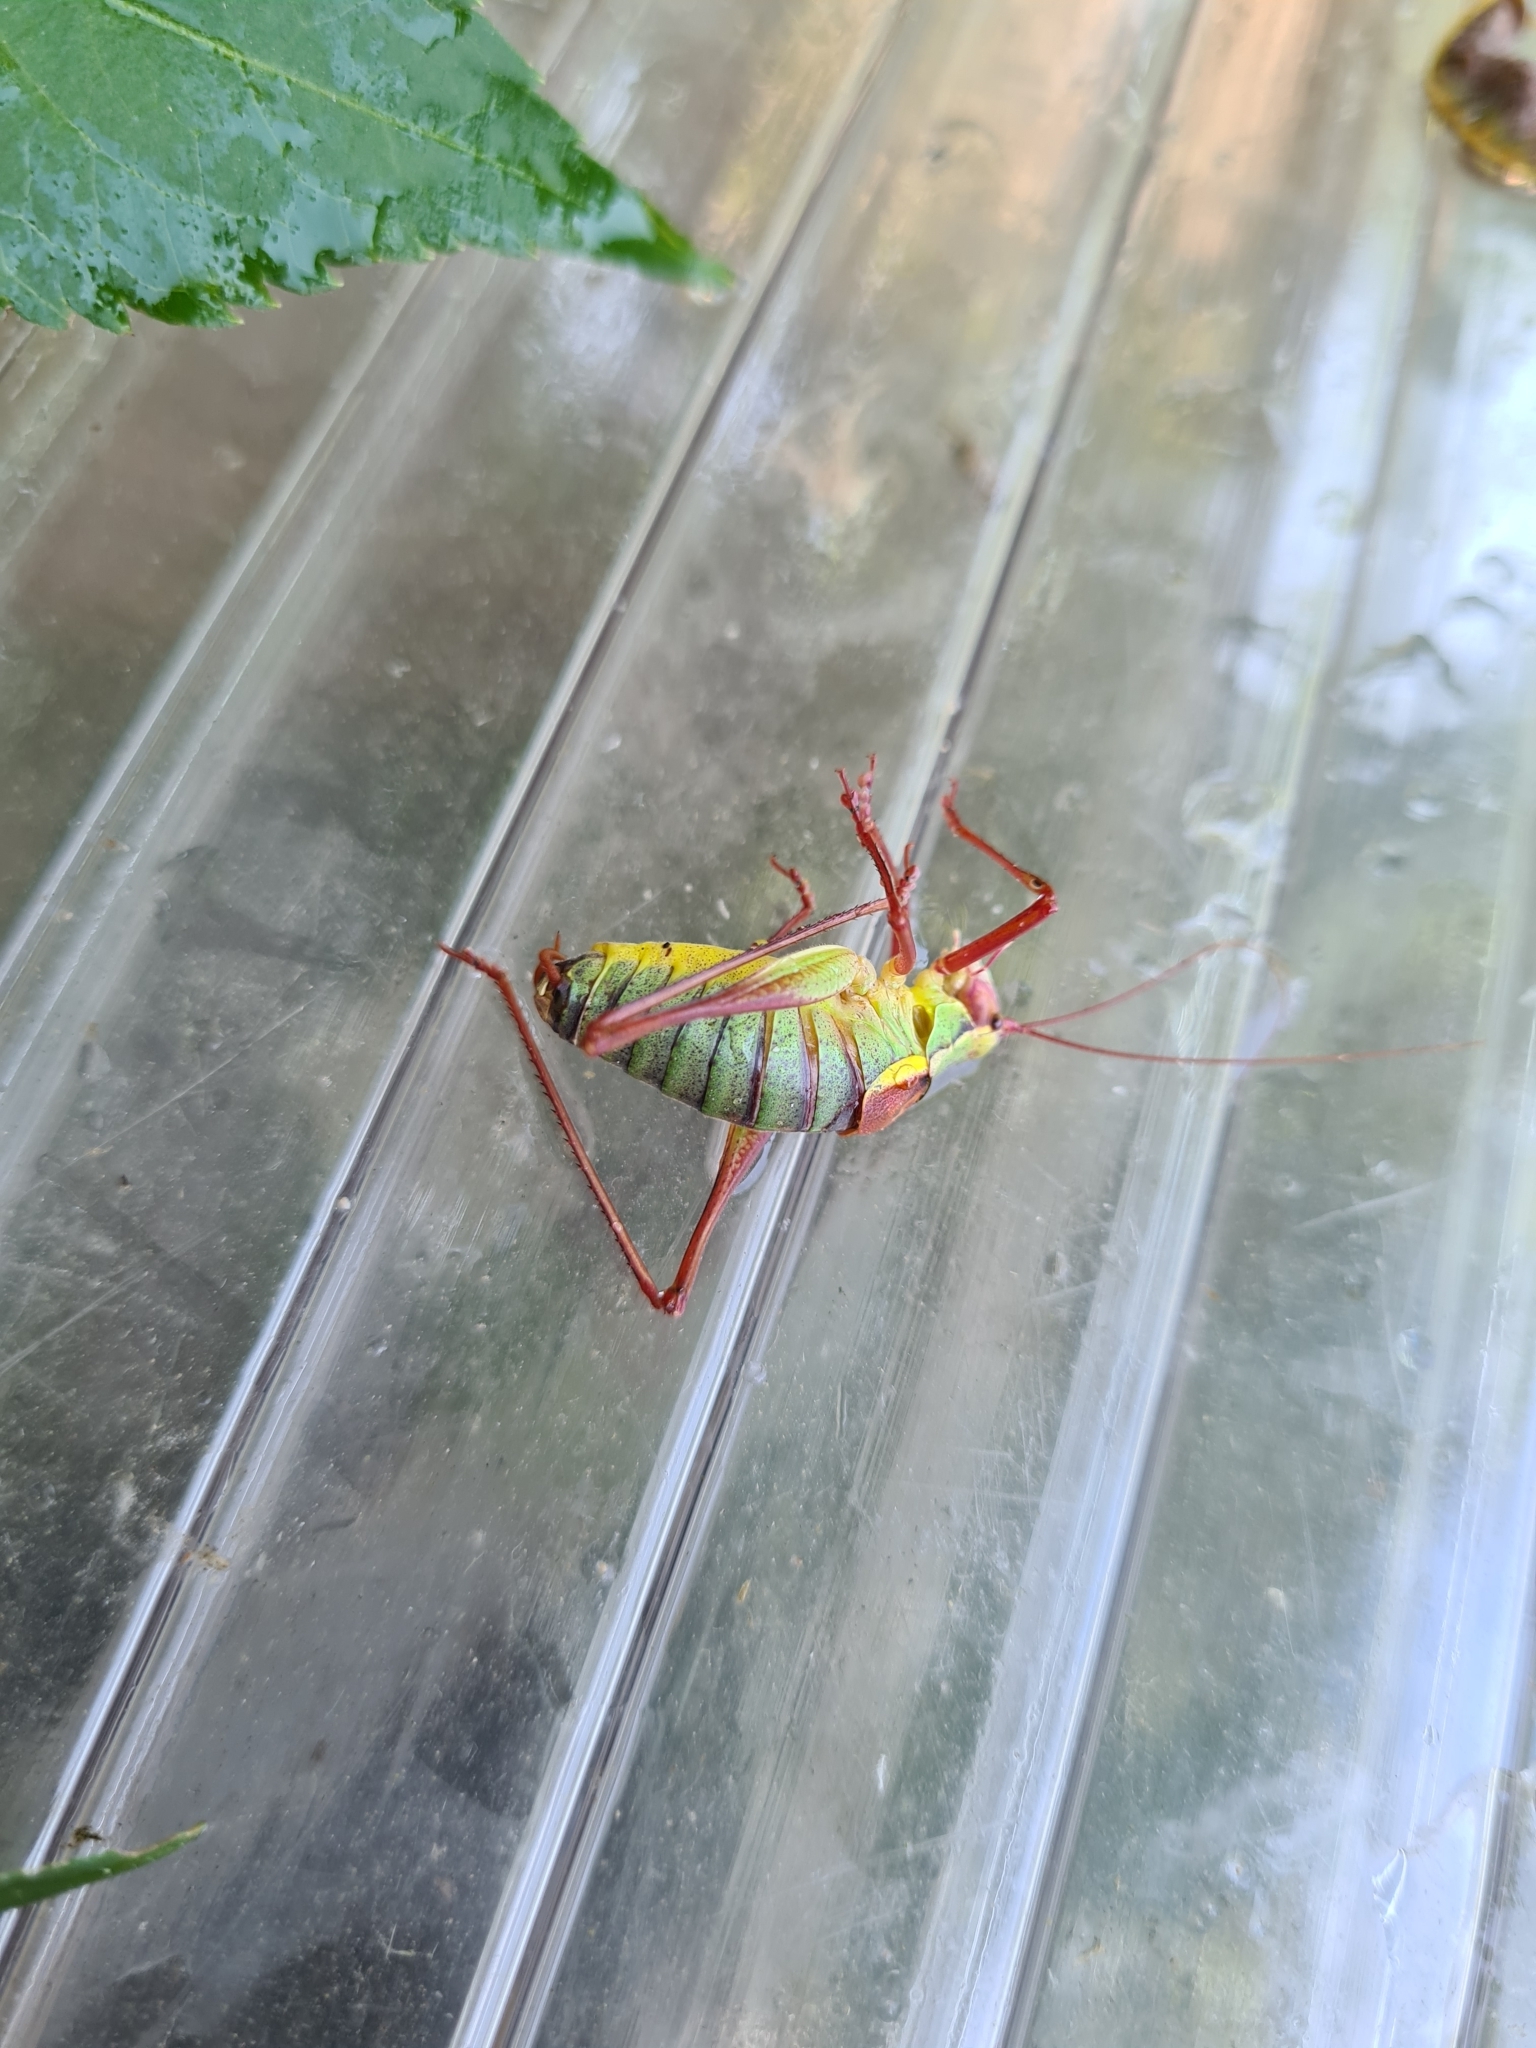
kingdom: Animalia
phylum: Arthropoda
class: Insecta
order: Orthoptera
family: Tettigoniidae
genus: Barbitistes
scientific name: Barbitistes serricauda
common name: Saw-tailed bush-cricket
